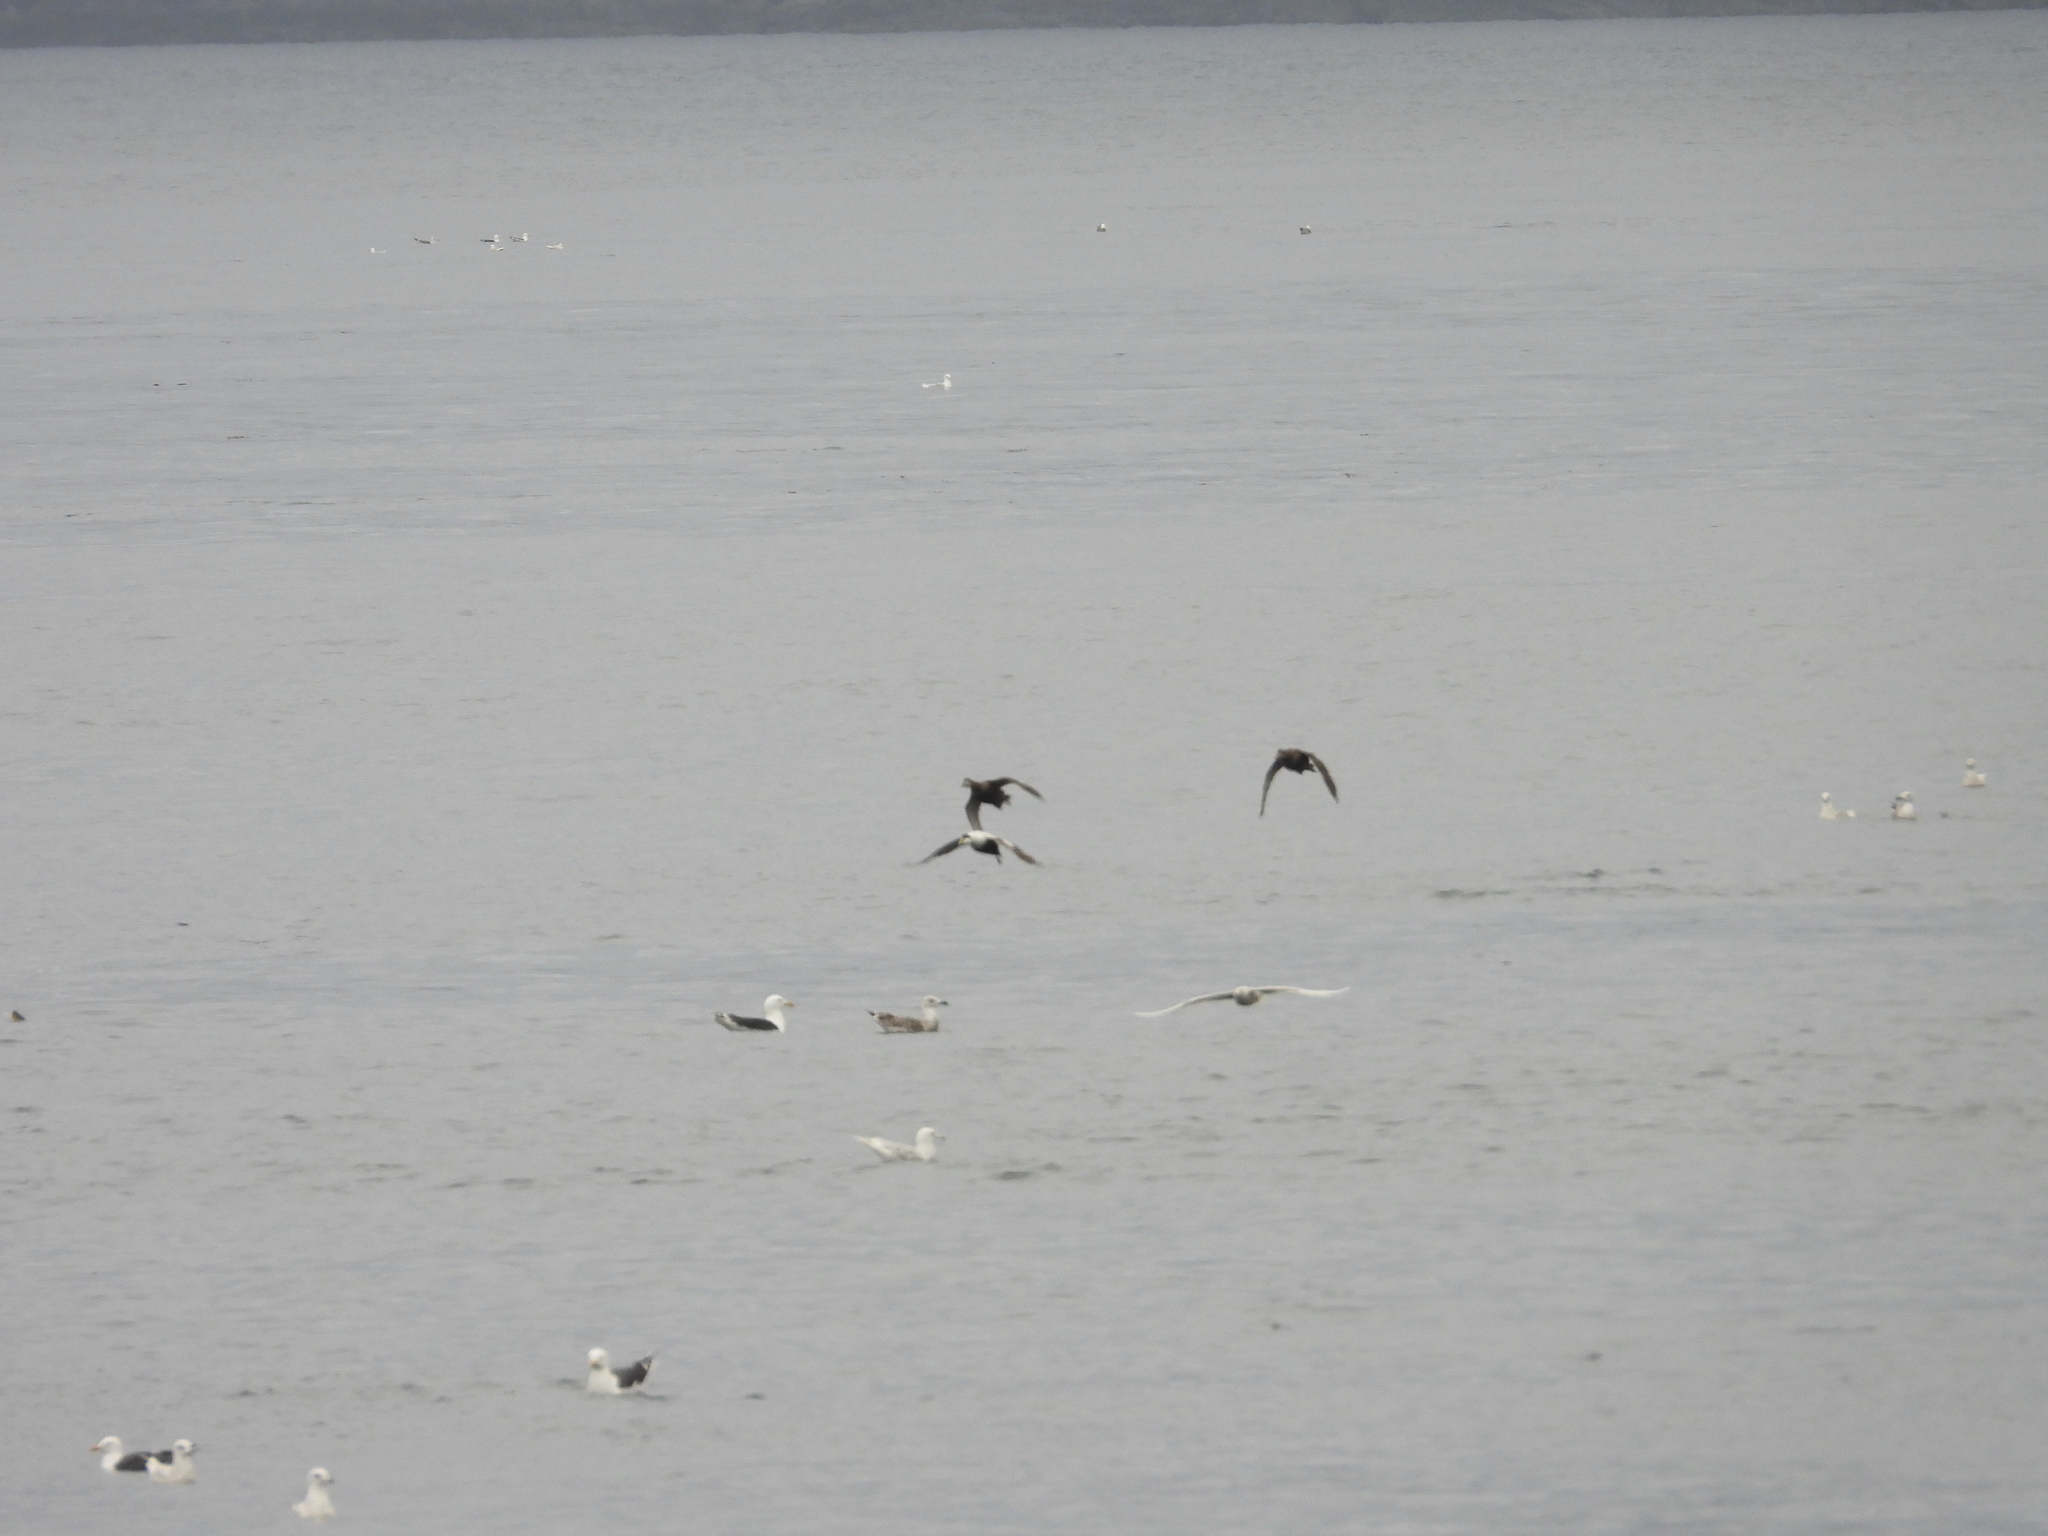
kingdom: Animalia
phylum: Chordata
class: Aves
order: Anseriformes
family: Anatidae
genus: Somateria
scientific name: Somateria mollissima
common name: Common eider
